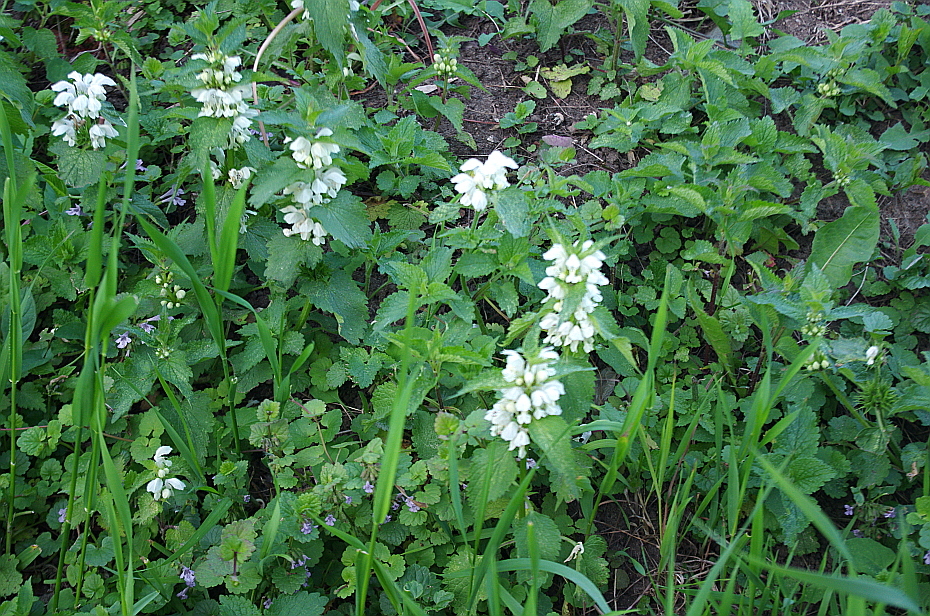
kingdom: Plantae
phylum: Tracheophyta
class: Magnoliopsida
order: Lamiales
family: Lamiaceae
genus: Lamium
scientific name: Lamium album
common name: White dead-nettle
